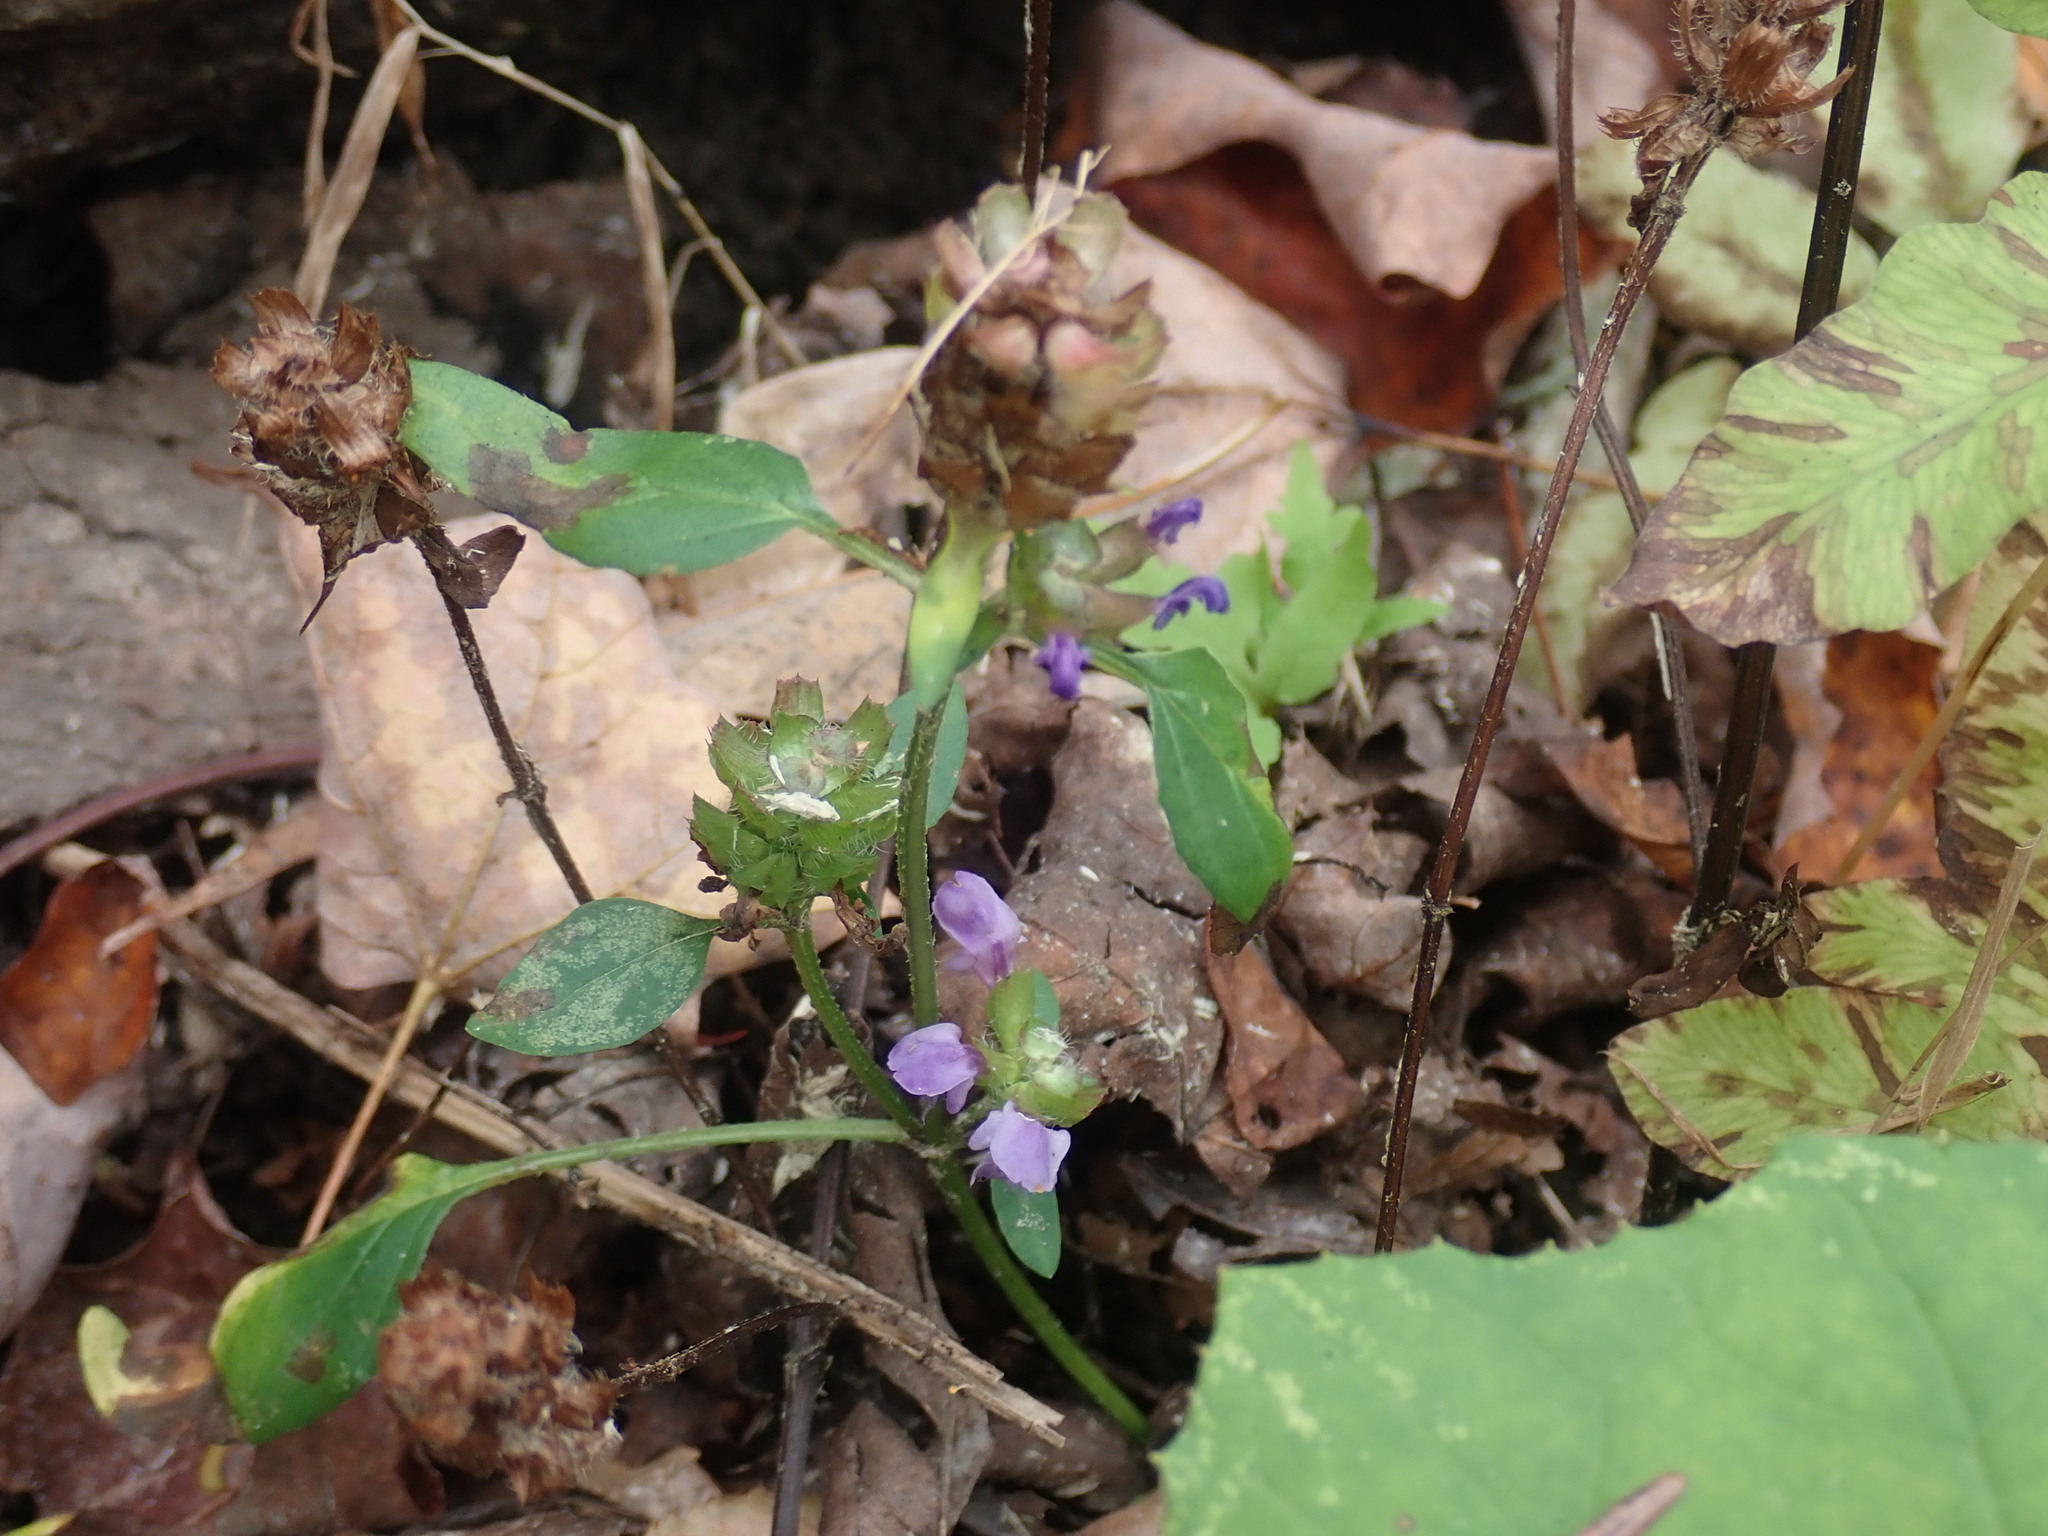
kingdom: Plantae
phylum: Tracheophyta
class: Magnoliopsida
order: Lamiales
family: Lamiaceae
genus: Prunella
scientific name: Prunella vulgaris
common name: Heal-all
